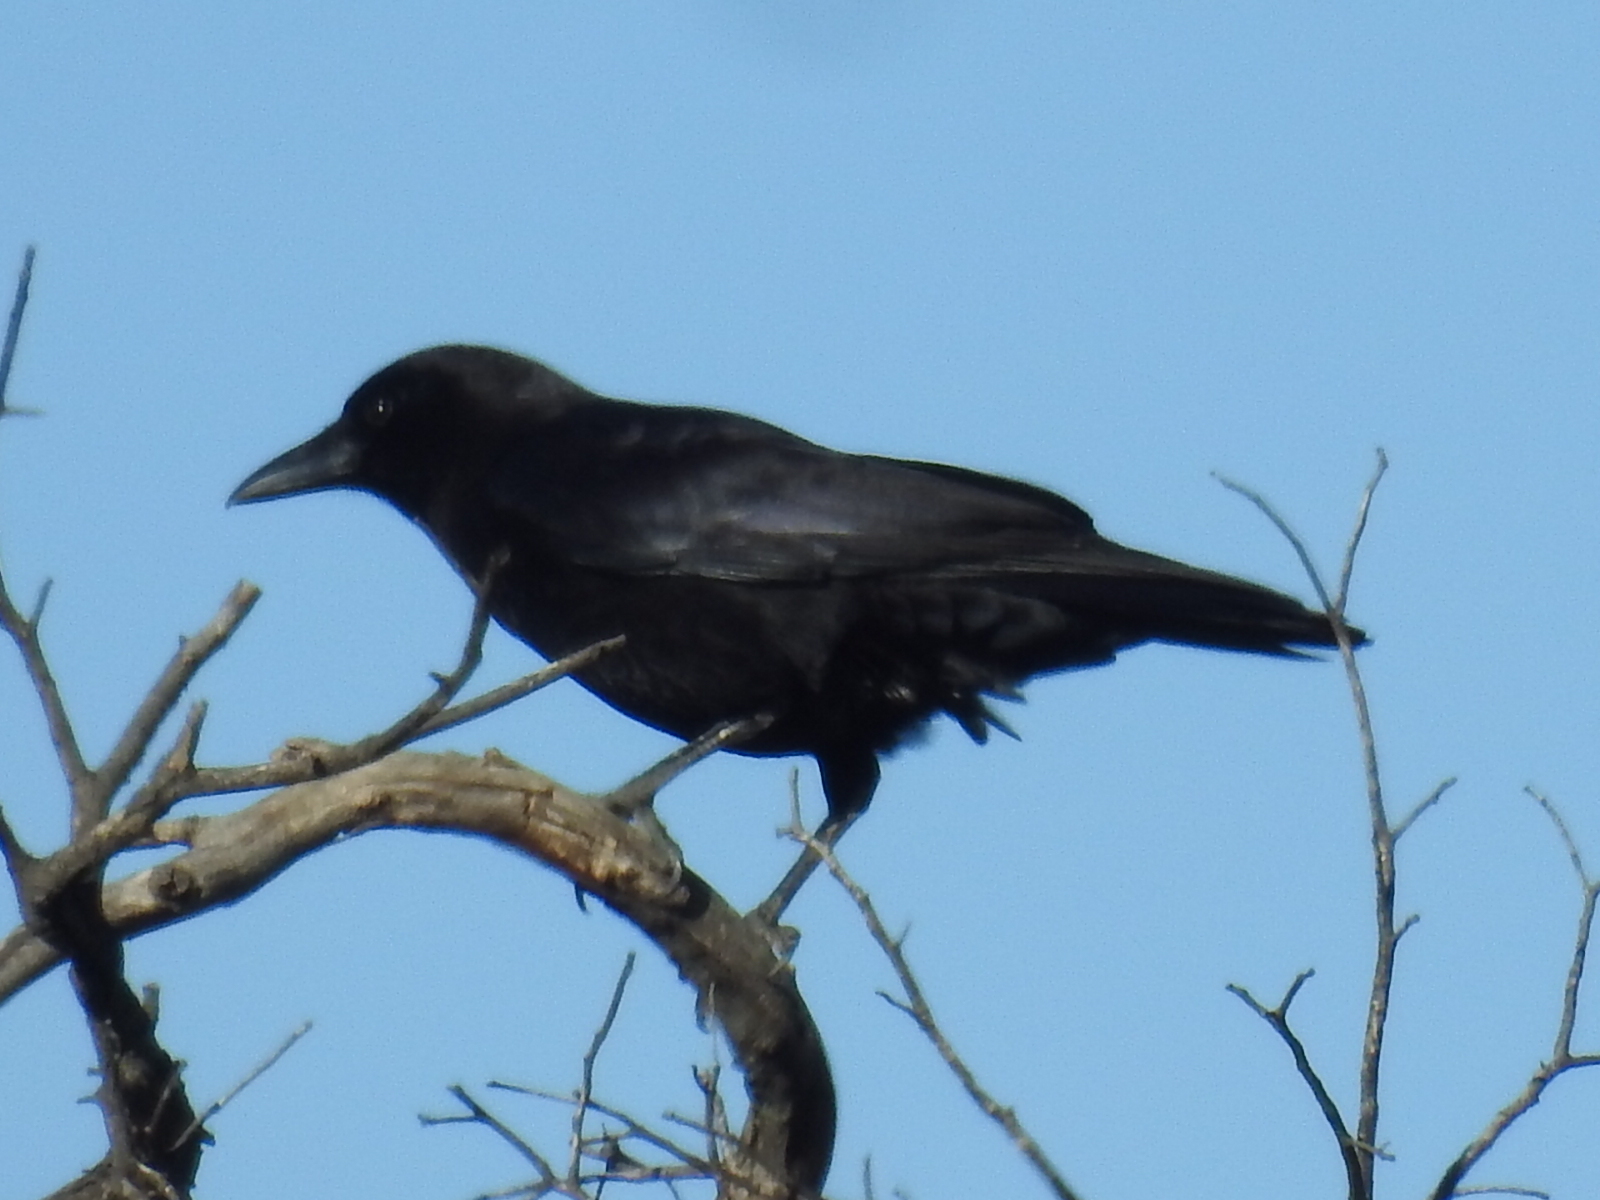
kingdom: Animalia
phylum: Chordata
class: Aves
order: Passeriformes
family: Corvidae
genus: Corvus
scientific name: Corvus brachyrhynchos
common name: American crow
